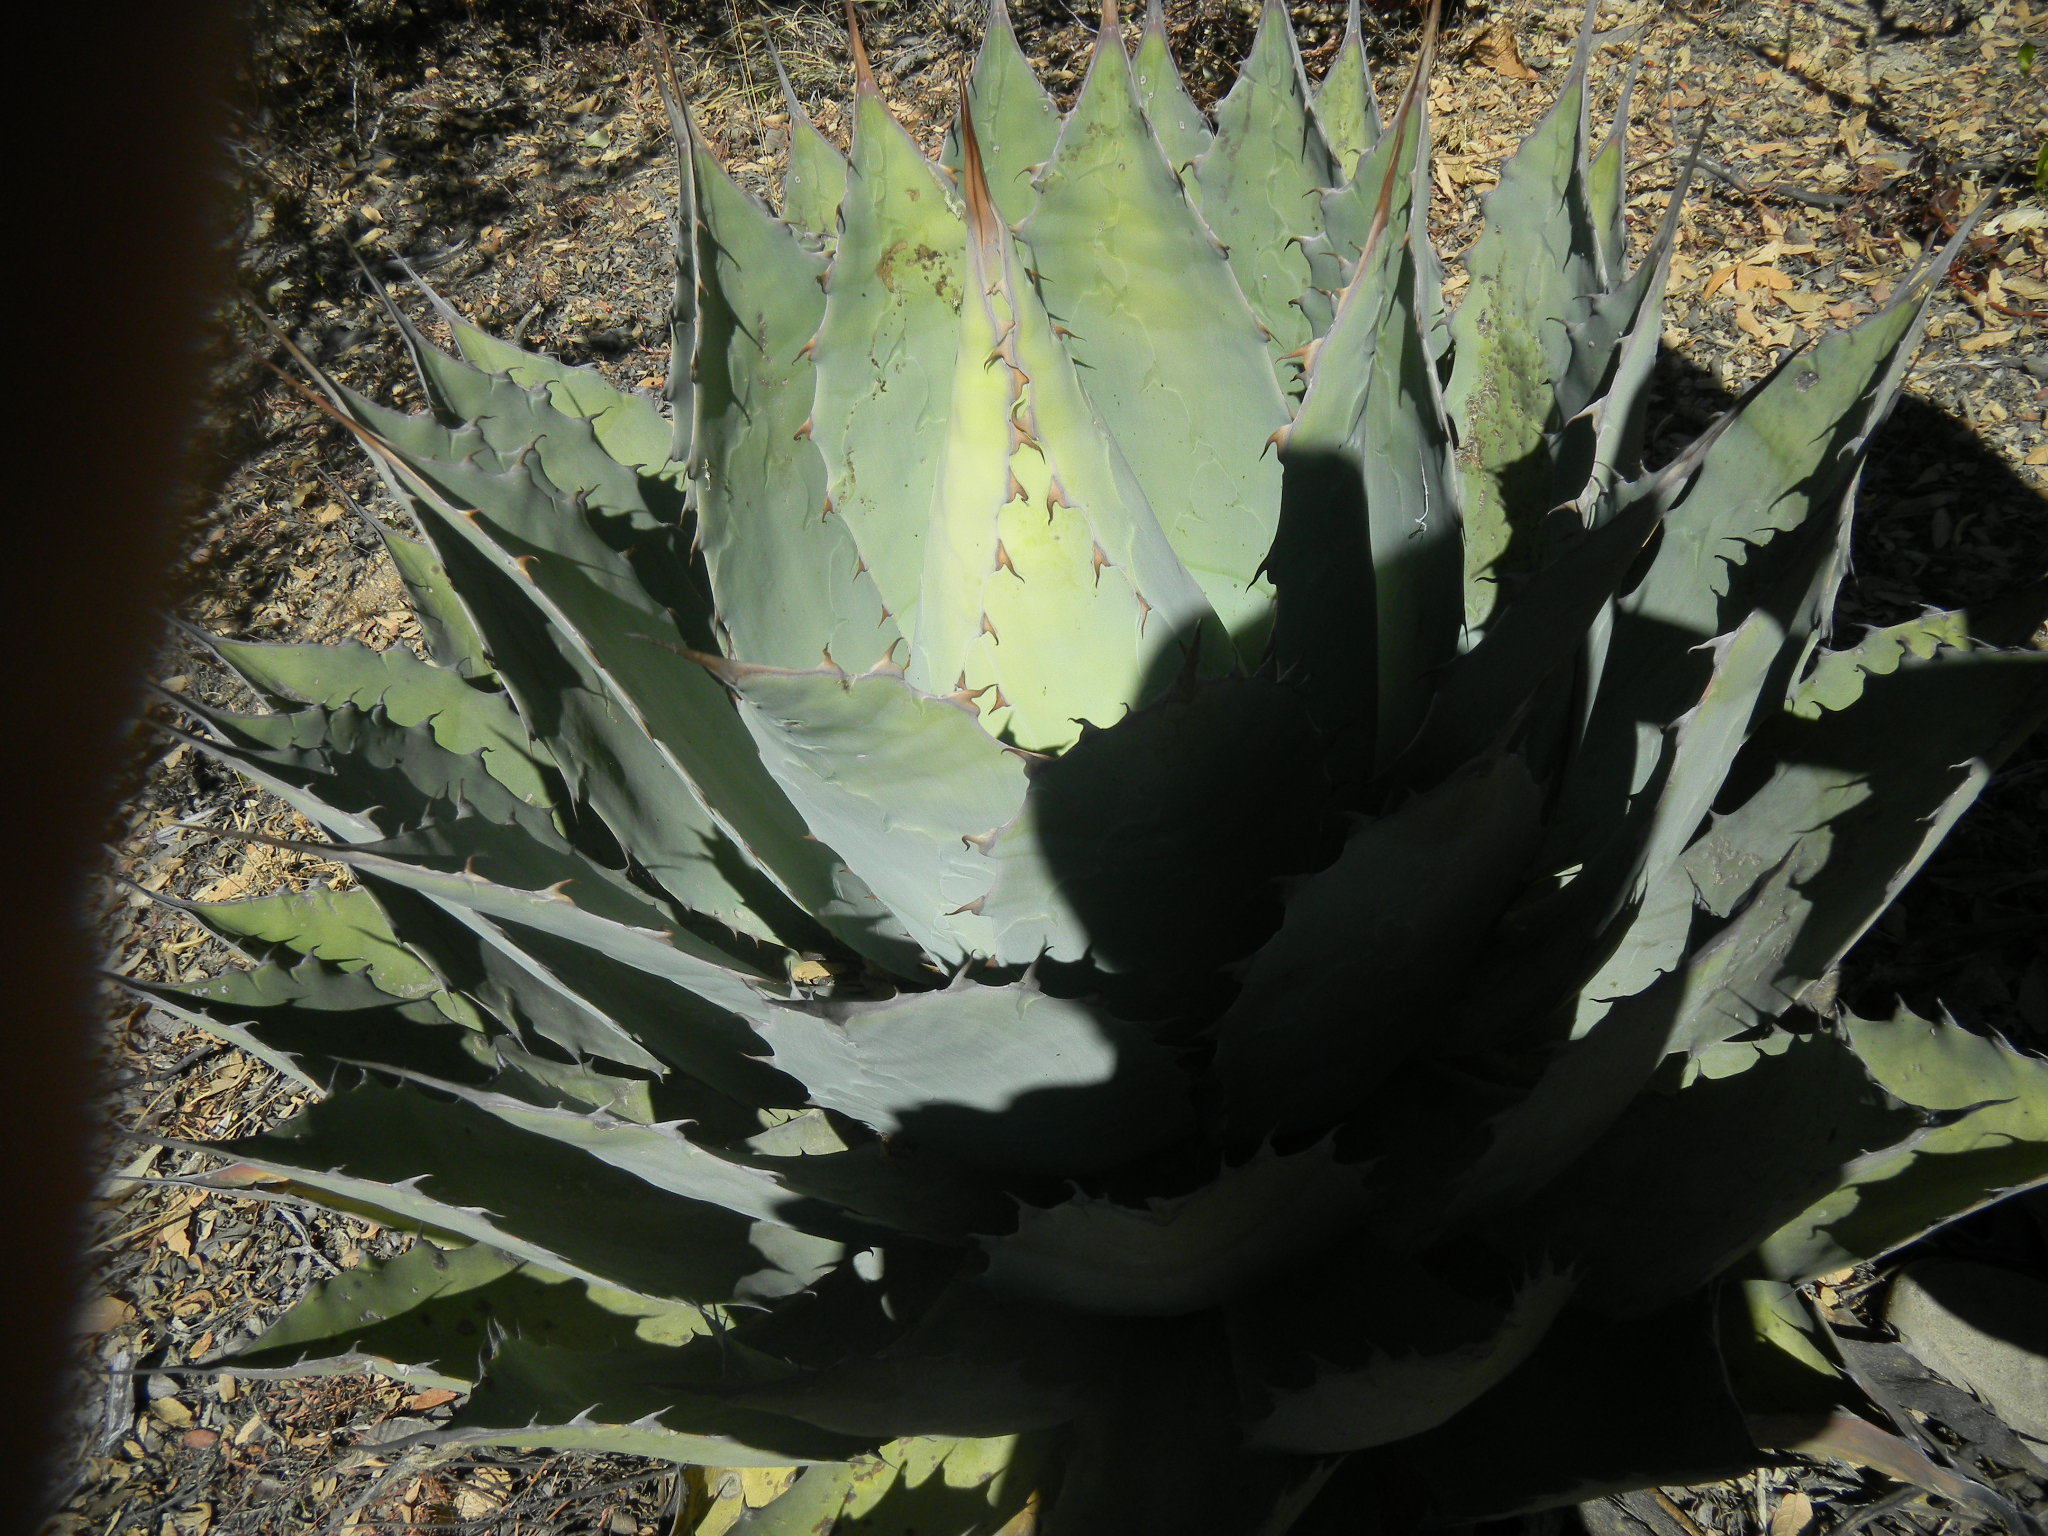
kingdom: Plantae
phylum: Tracheophyta
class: Liliopsida
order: Asparagales
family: Asparagaceae
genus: Agave
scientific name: Agave potatorum
